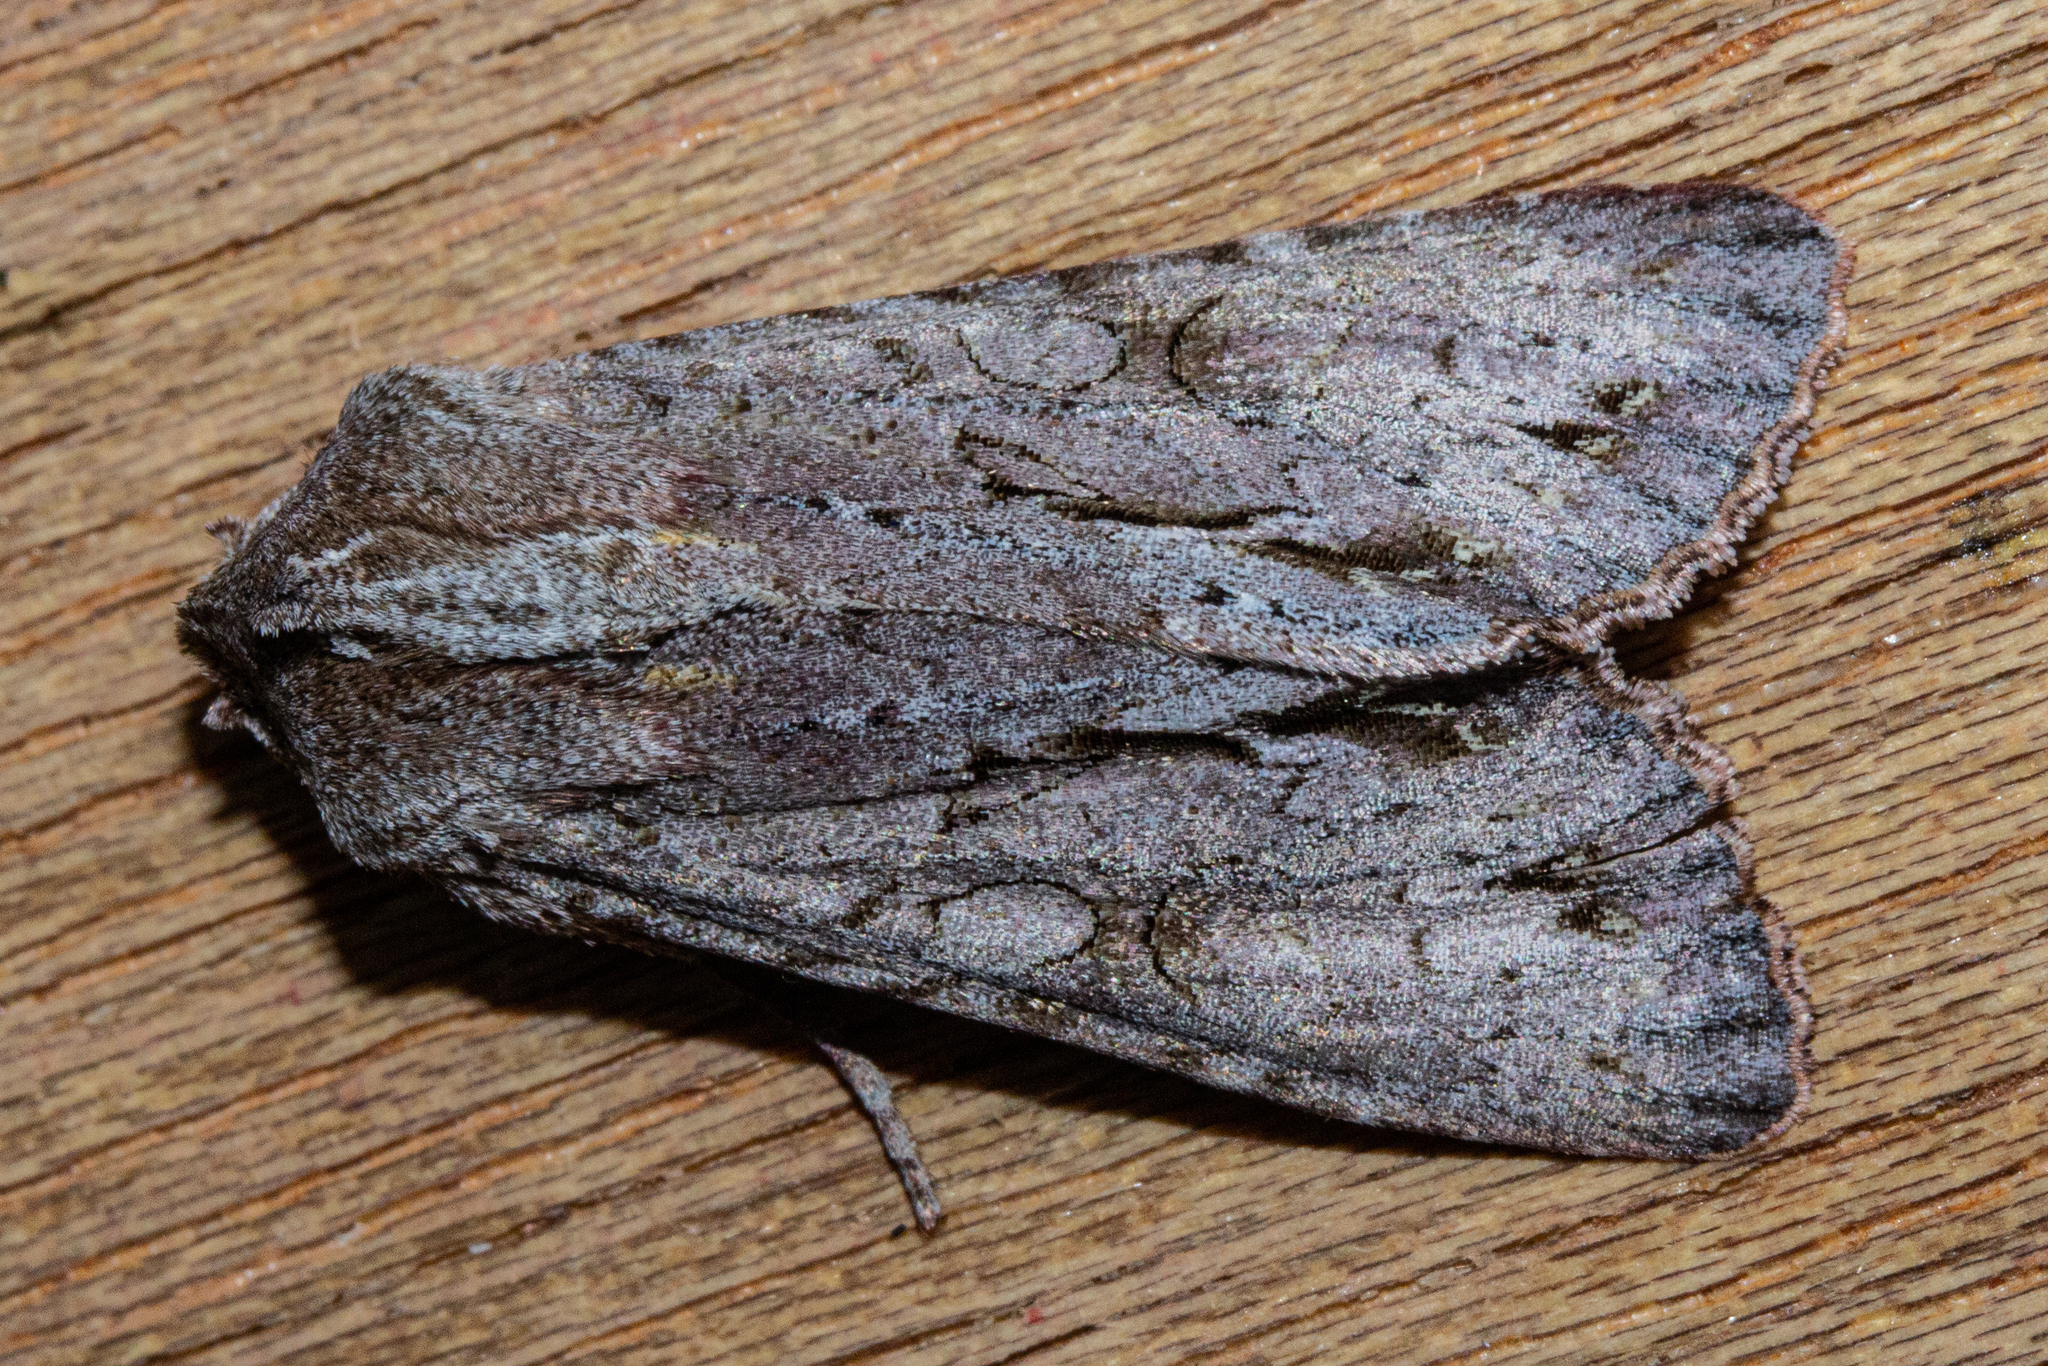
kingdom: Animalia
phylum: Arthropoda
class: Insecta
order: Lepidoptera
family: Noctuidae
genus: Ichneutica
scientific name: Ichneutica
